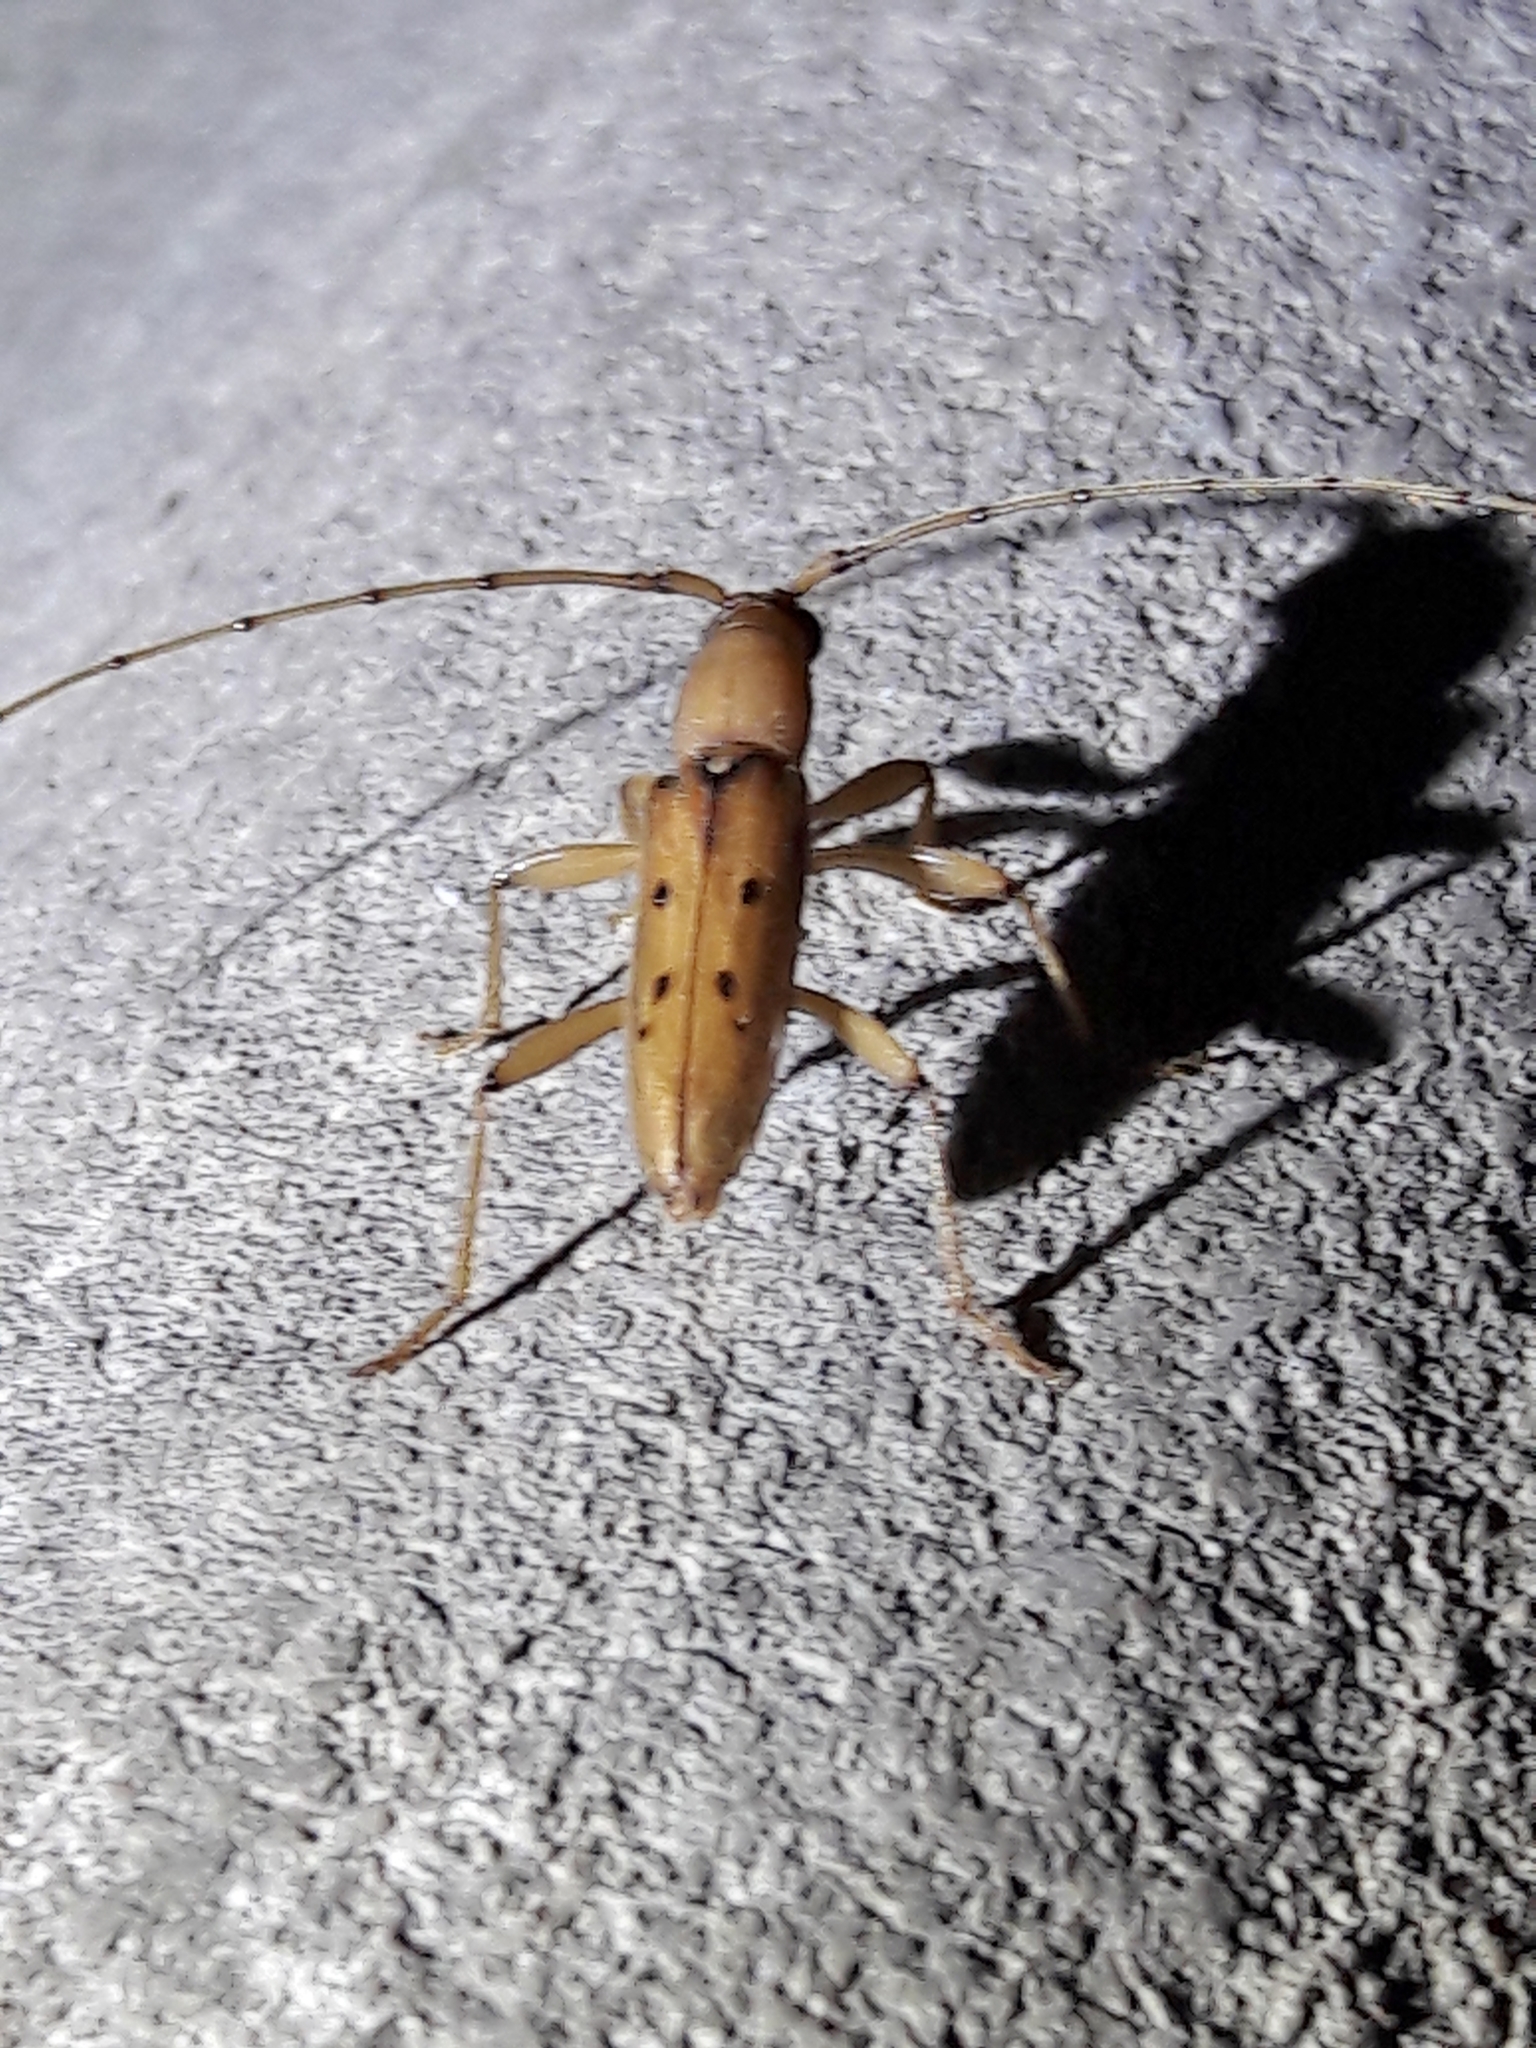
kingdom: Animalia
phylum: Arthropoda
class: Insecta
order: Coleoptera
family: Cerambycidae
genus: Achryson
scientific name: Achryson surinamum
